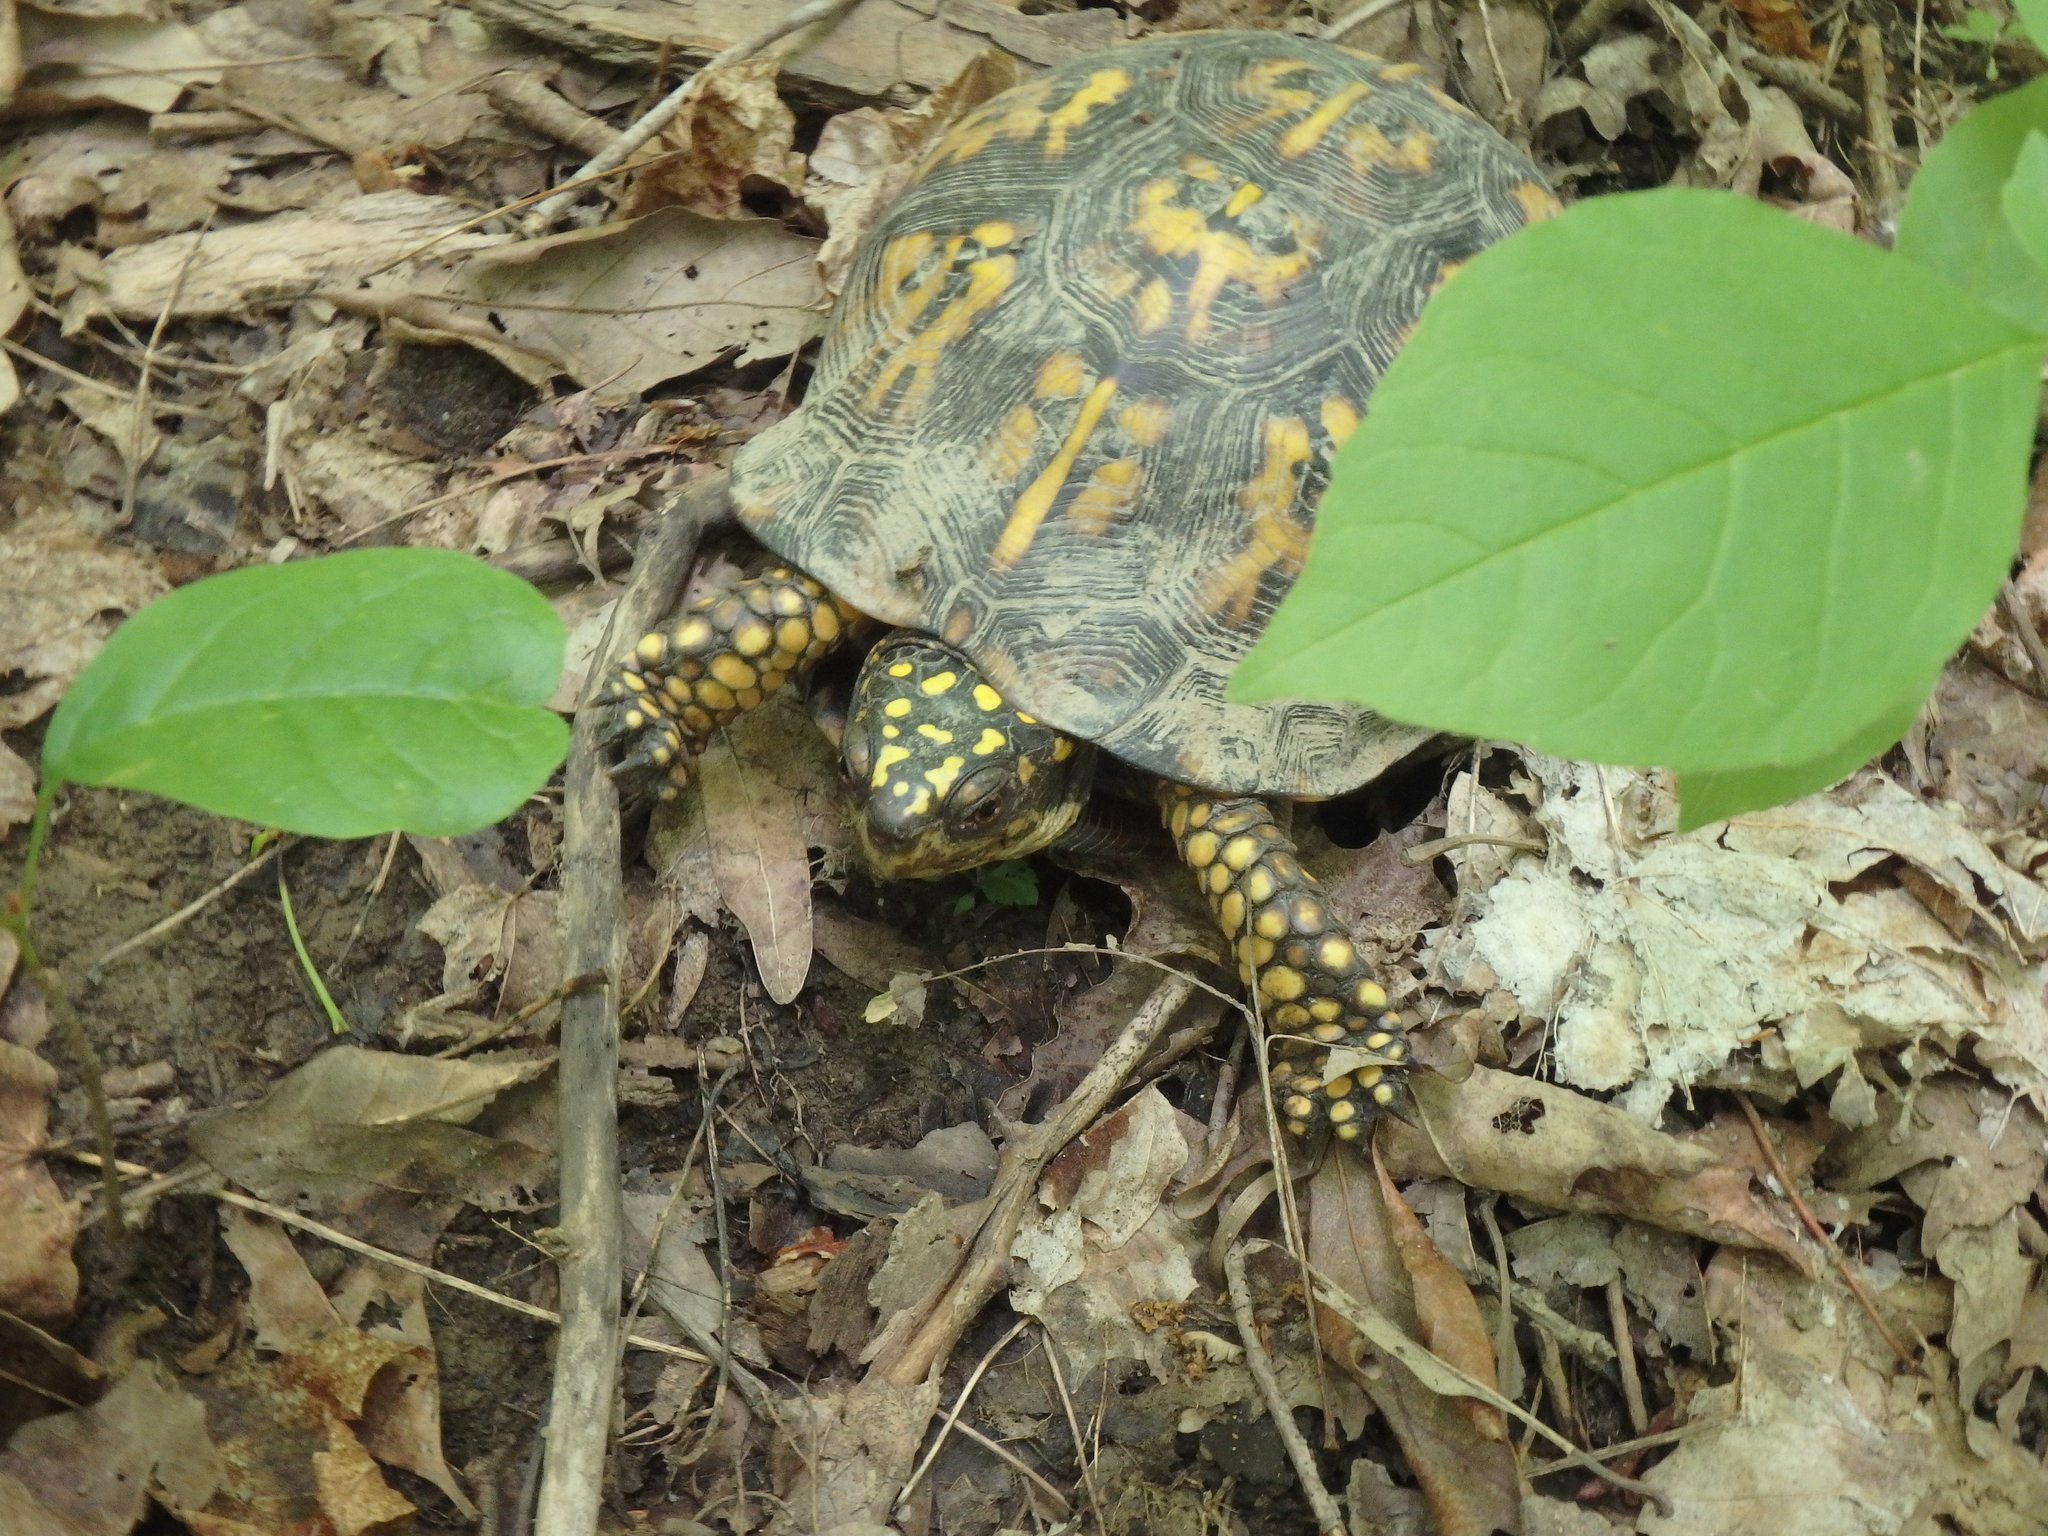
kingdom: Animalia
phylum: Chordata
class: Testudines
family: Emydidae
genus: Terrapene
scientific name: Terrapene carolina
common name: Common box turtle
